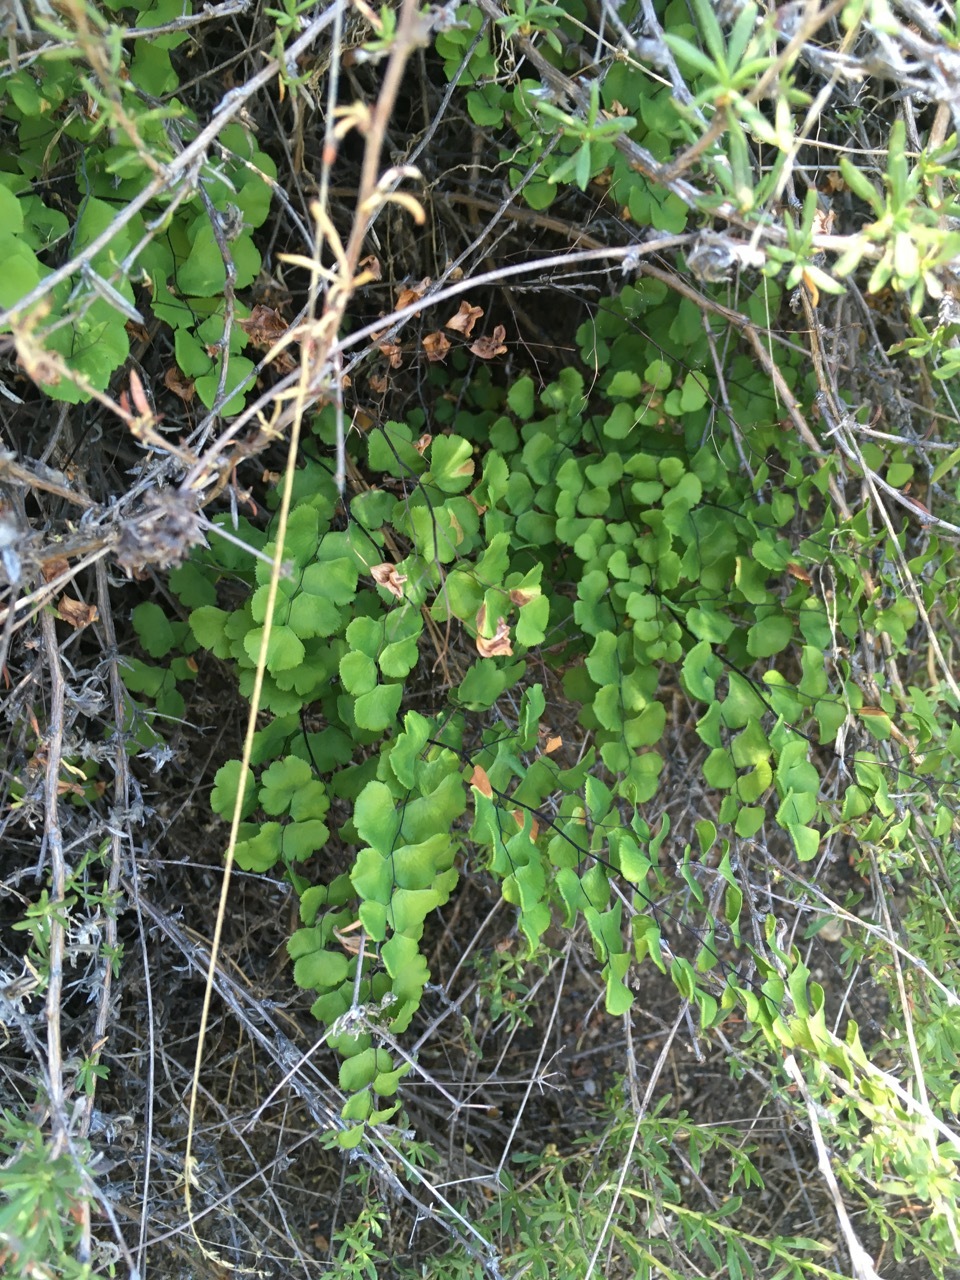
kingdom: Plantae
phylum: Tracheophyta
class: Polypodiopsida
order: Polypodiales
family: Pteridaceae
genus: Adiantum
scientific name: Adiantum jordanii
